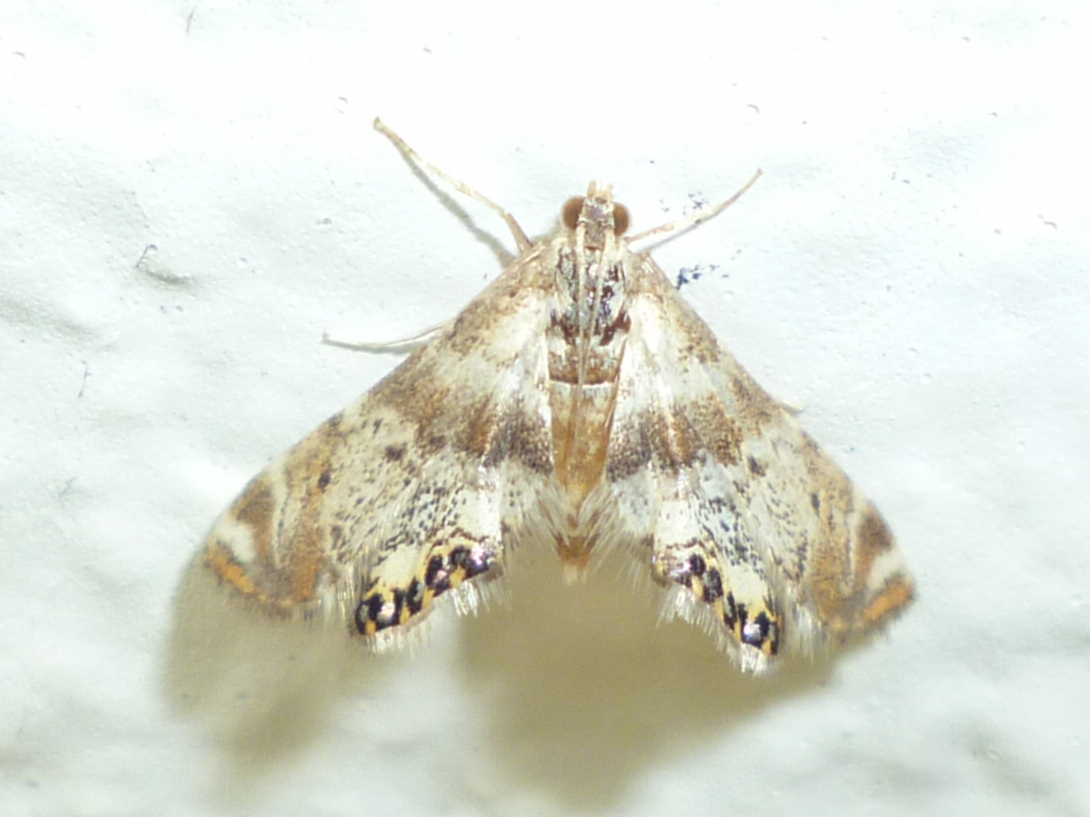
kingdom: Animalia
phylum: Arthropoda
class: Insecta
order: Lepidoptera
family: Crambidae
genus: Petrophila
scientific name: Petrophila fulicalis
